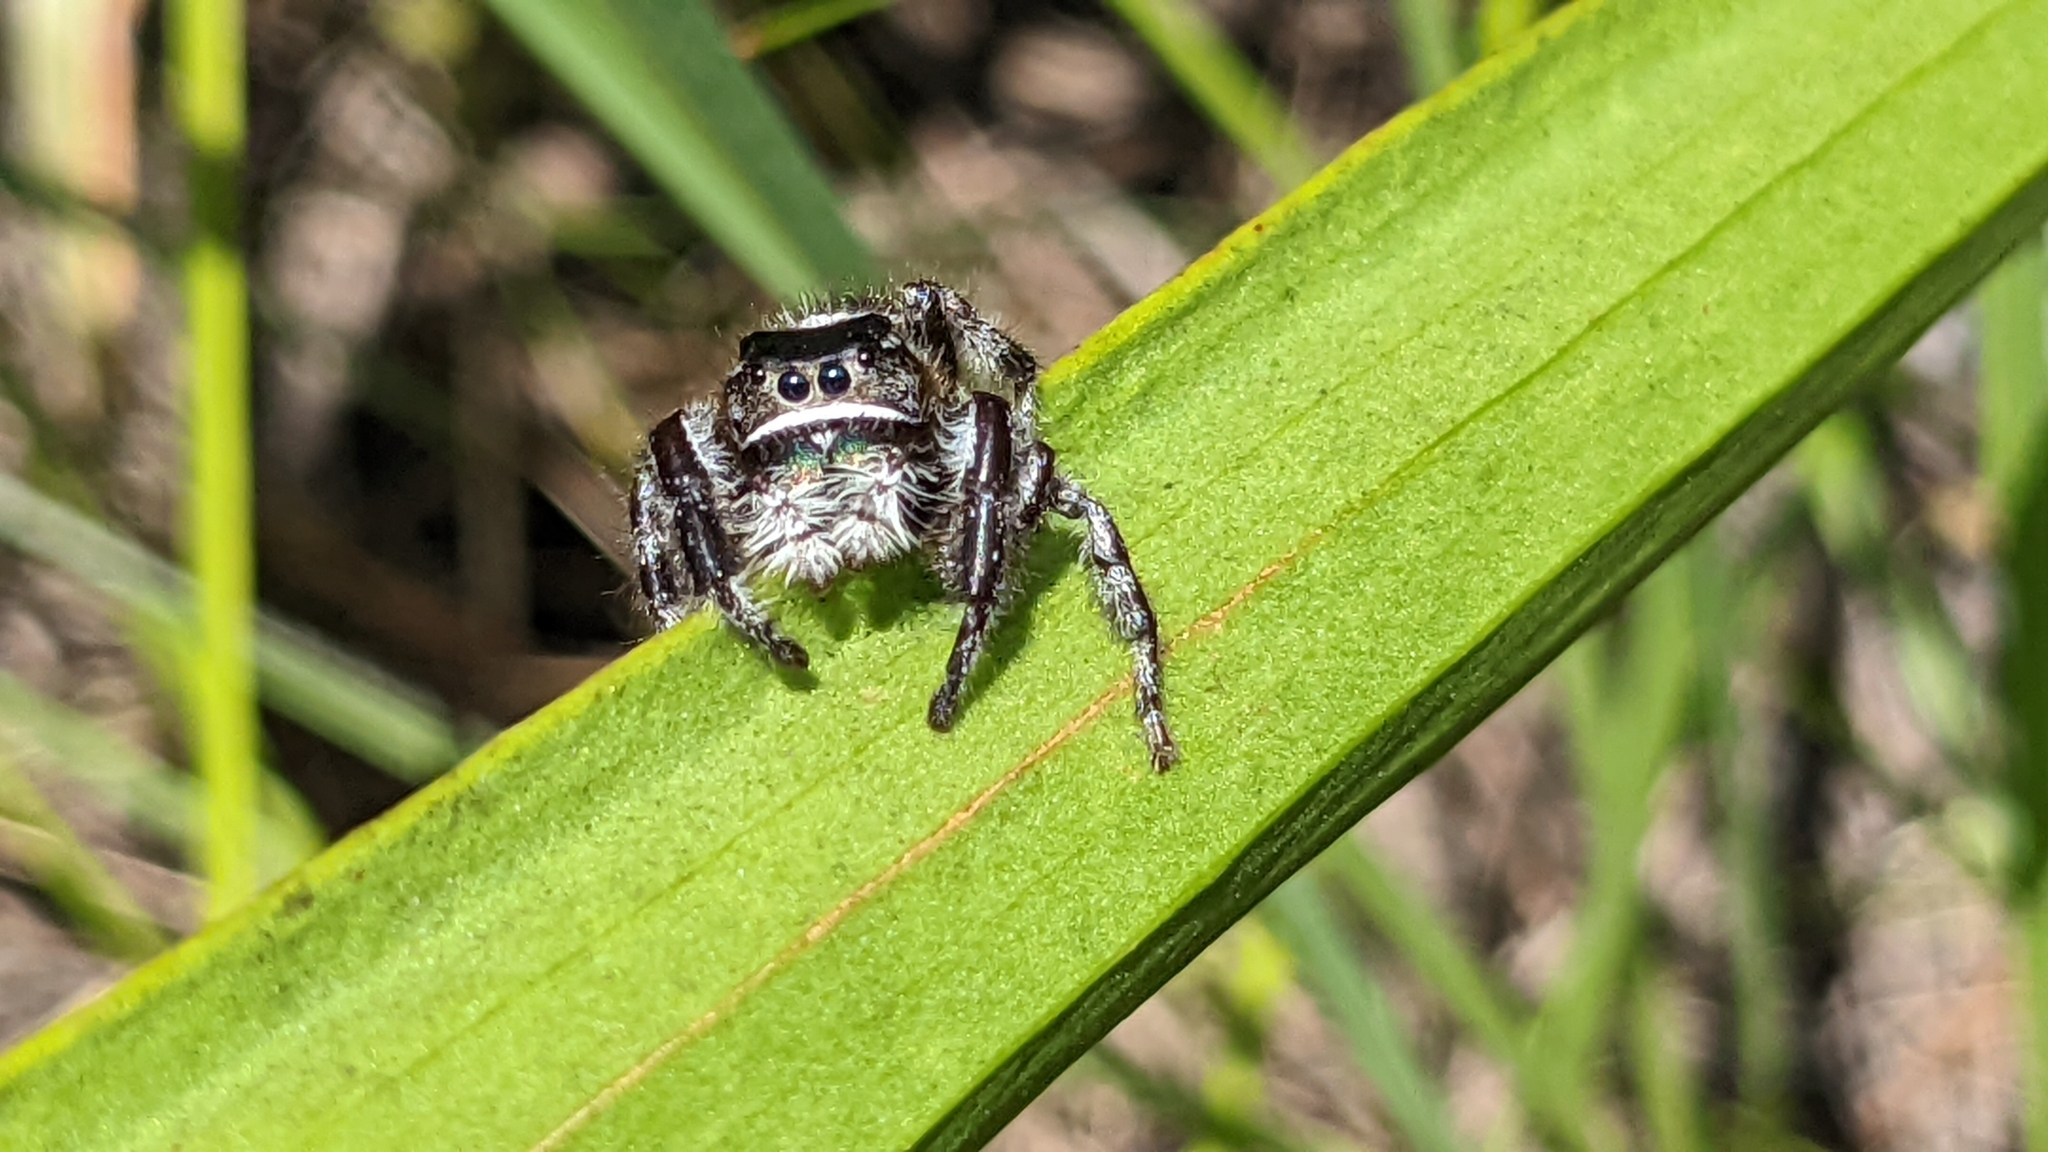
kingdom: Animalia
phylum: Arthropoda
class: Arachnida
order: Araneae
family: Salticidae
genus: Phidippus
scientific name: Phidippus regius
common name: Regal jumper
